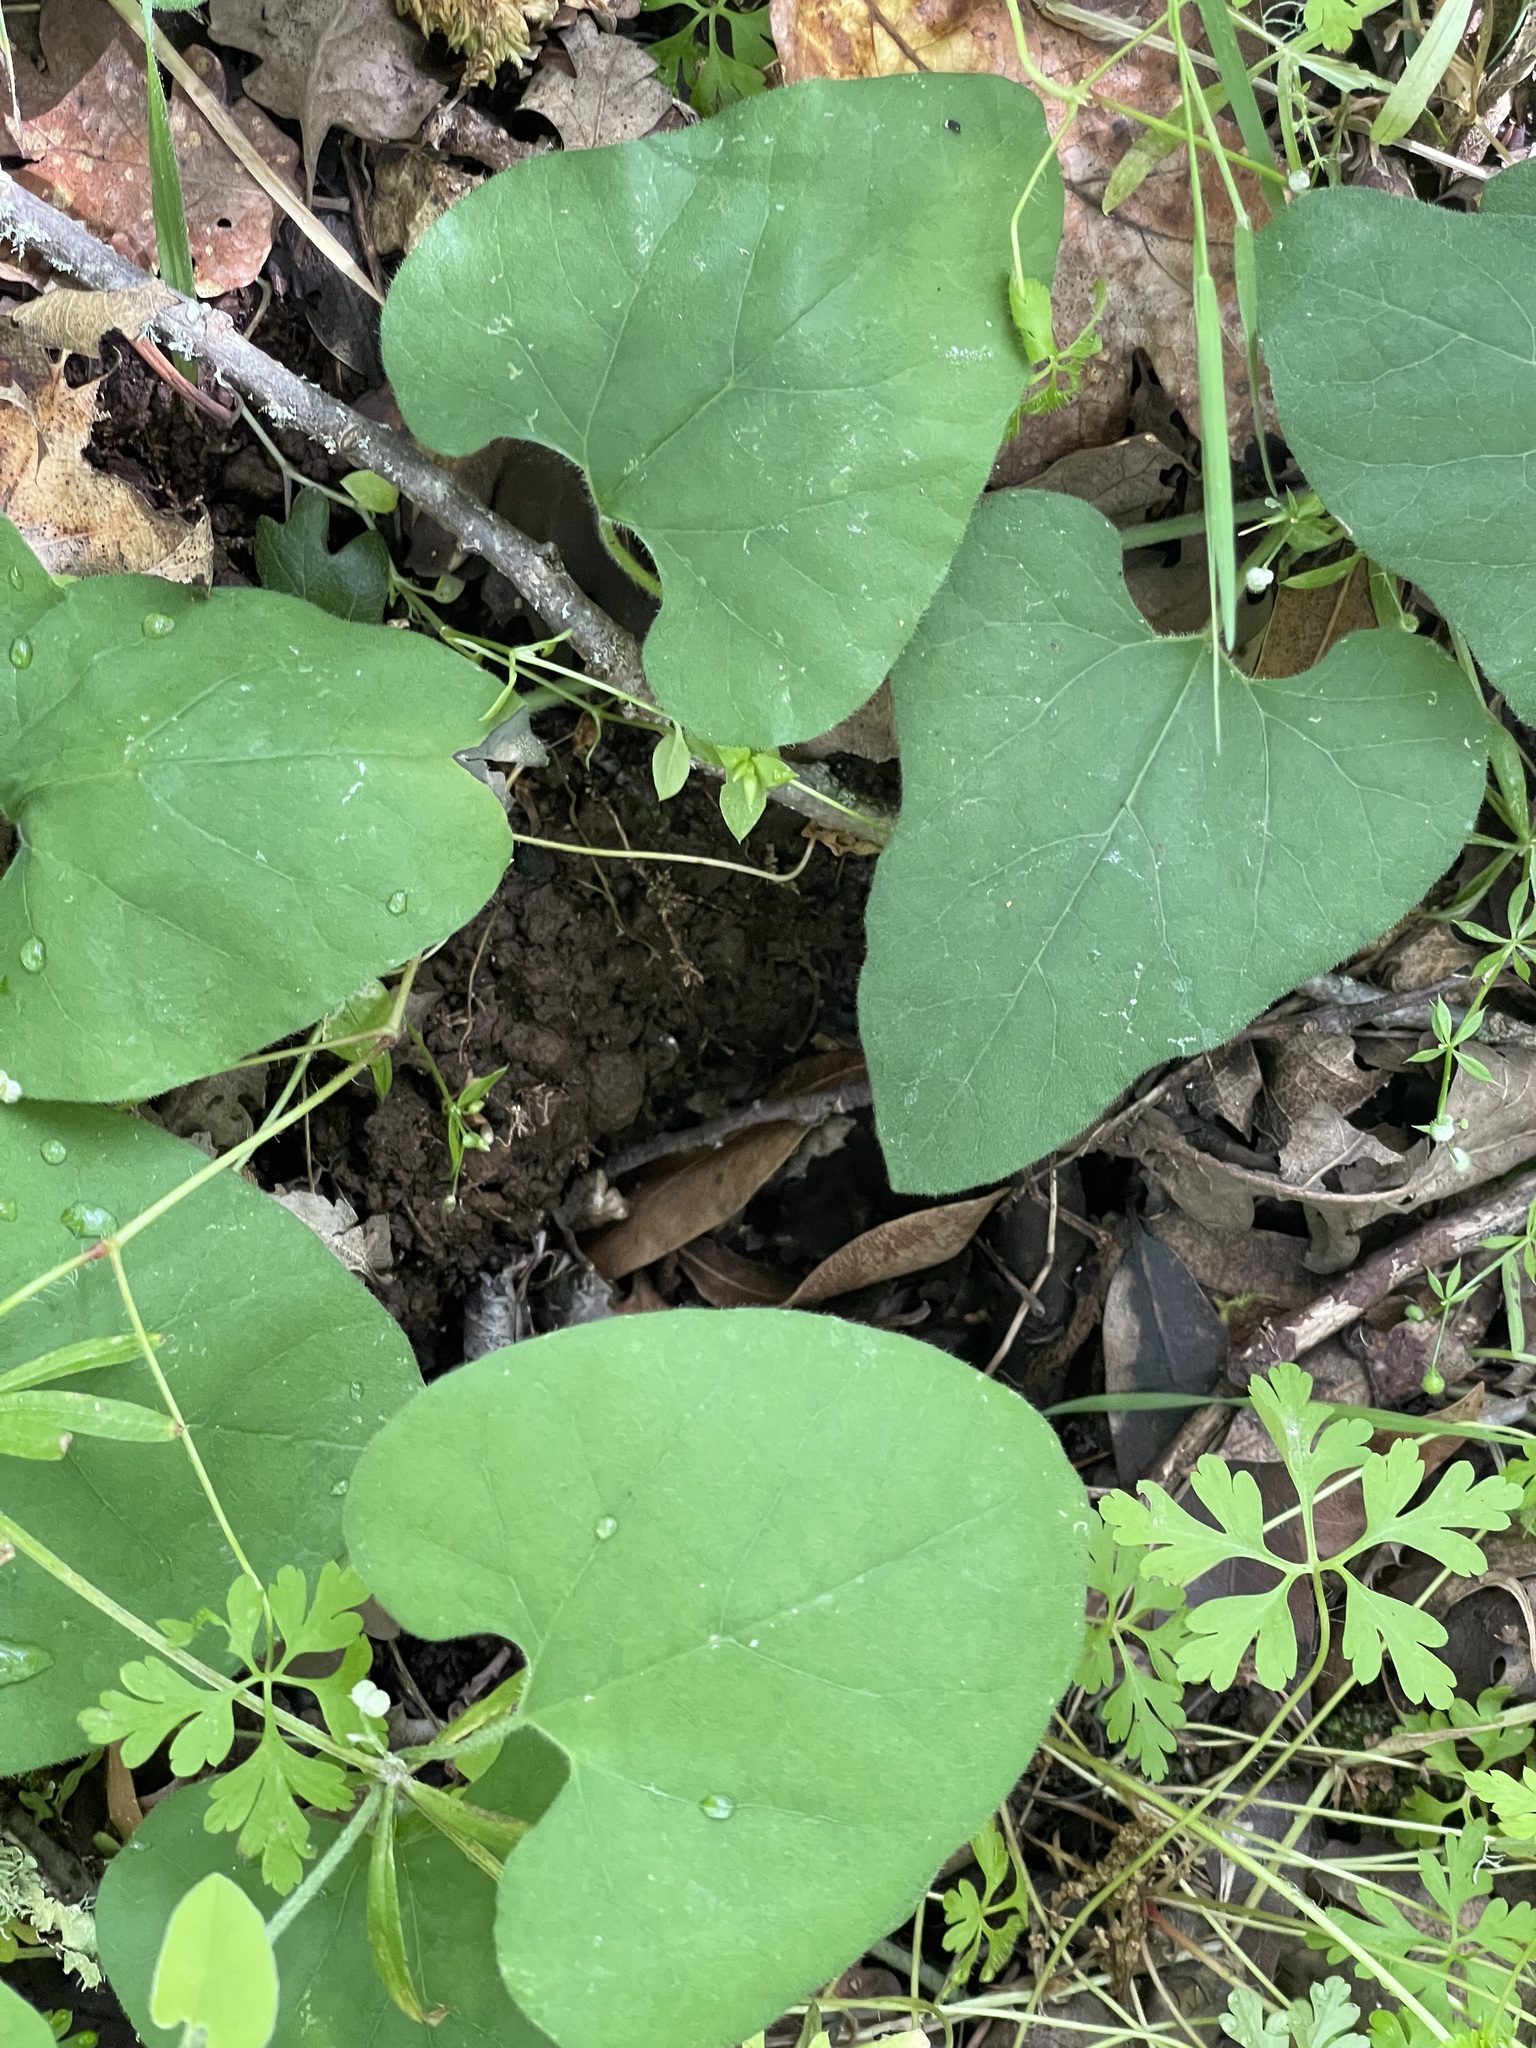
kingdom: Plantae
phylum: Tracheophyta
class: Magnoliopsida
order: Piperales
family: Aristolochiaceae
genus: Isotrema
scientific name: Isotrema californicum
